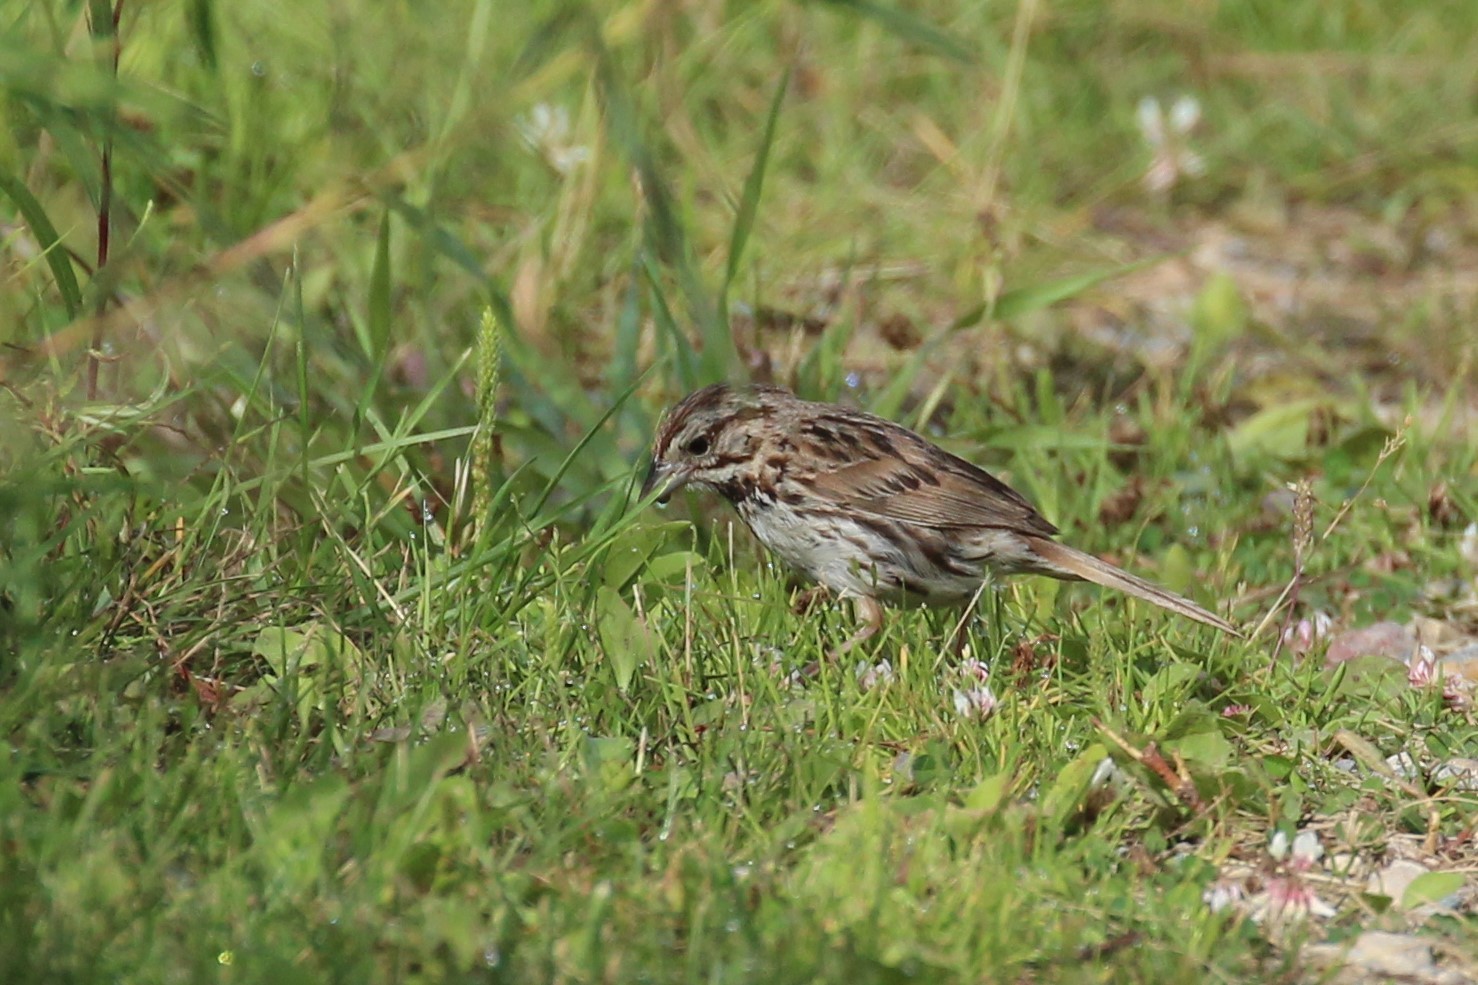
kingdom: Animalia
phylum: Chordata
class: Aves
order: Passeriformes
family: Passerellidae
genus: Melospiza
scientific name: Melospiza melodia
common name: Song sparrow
